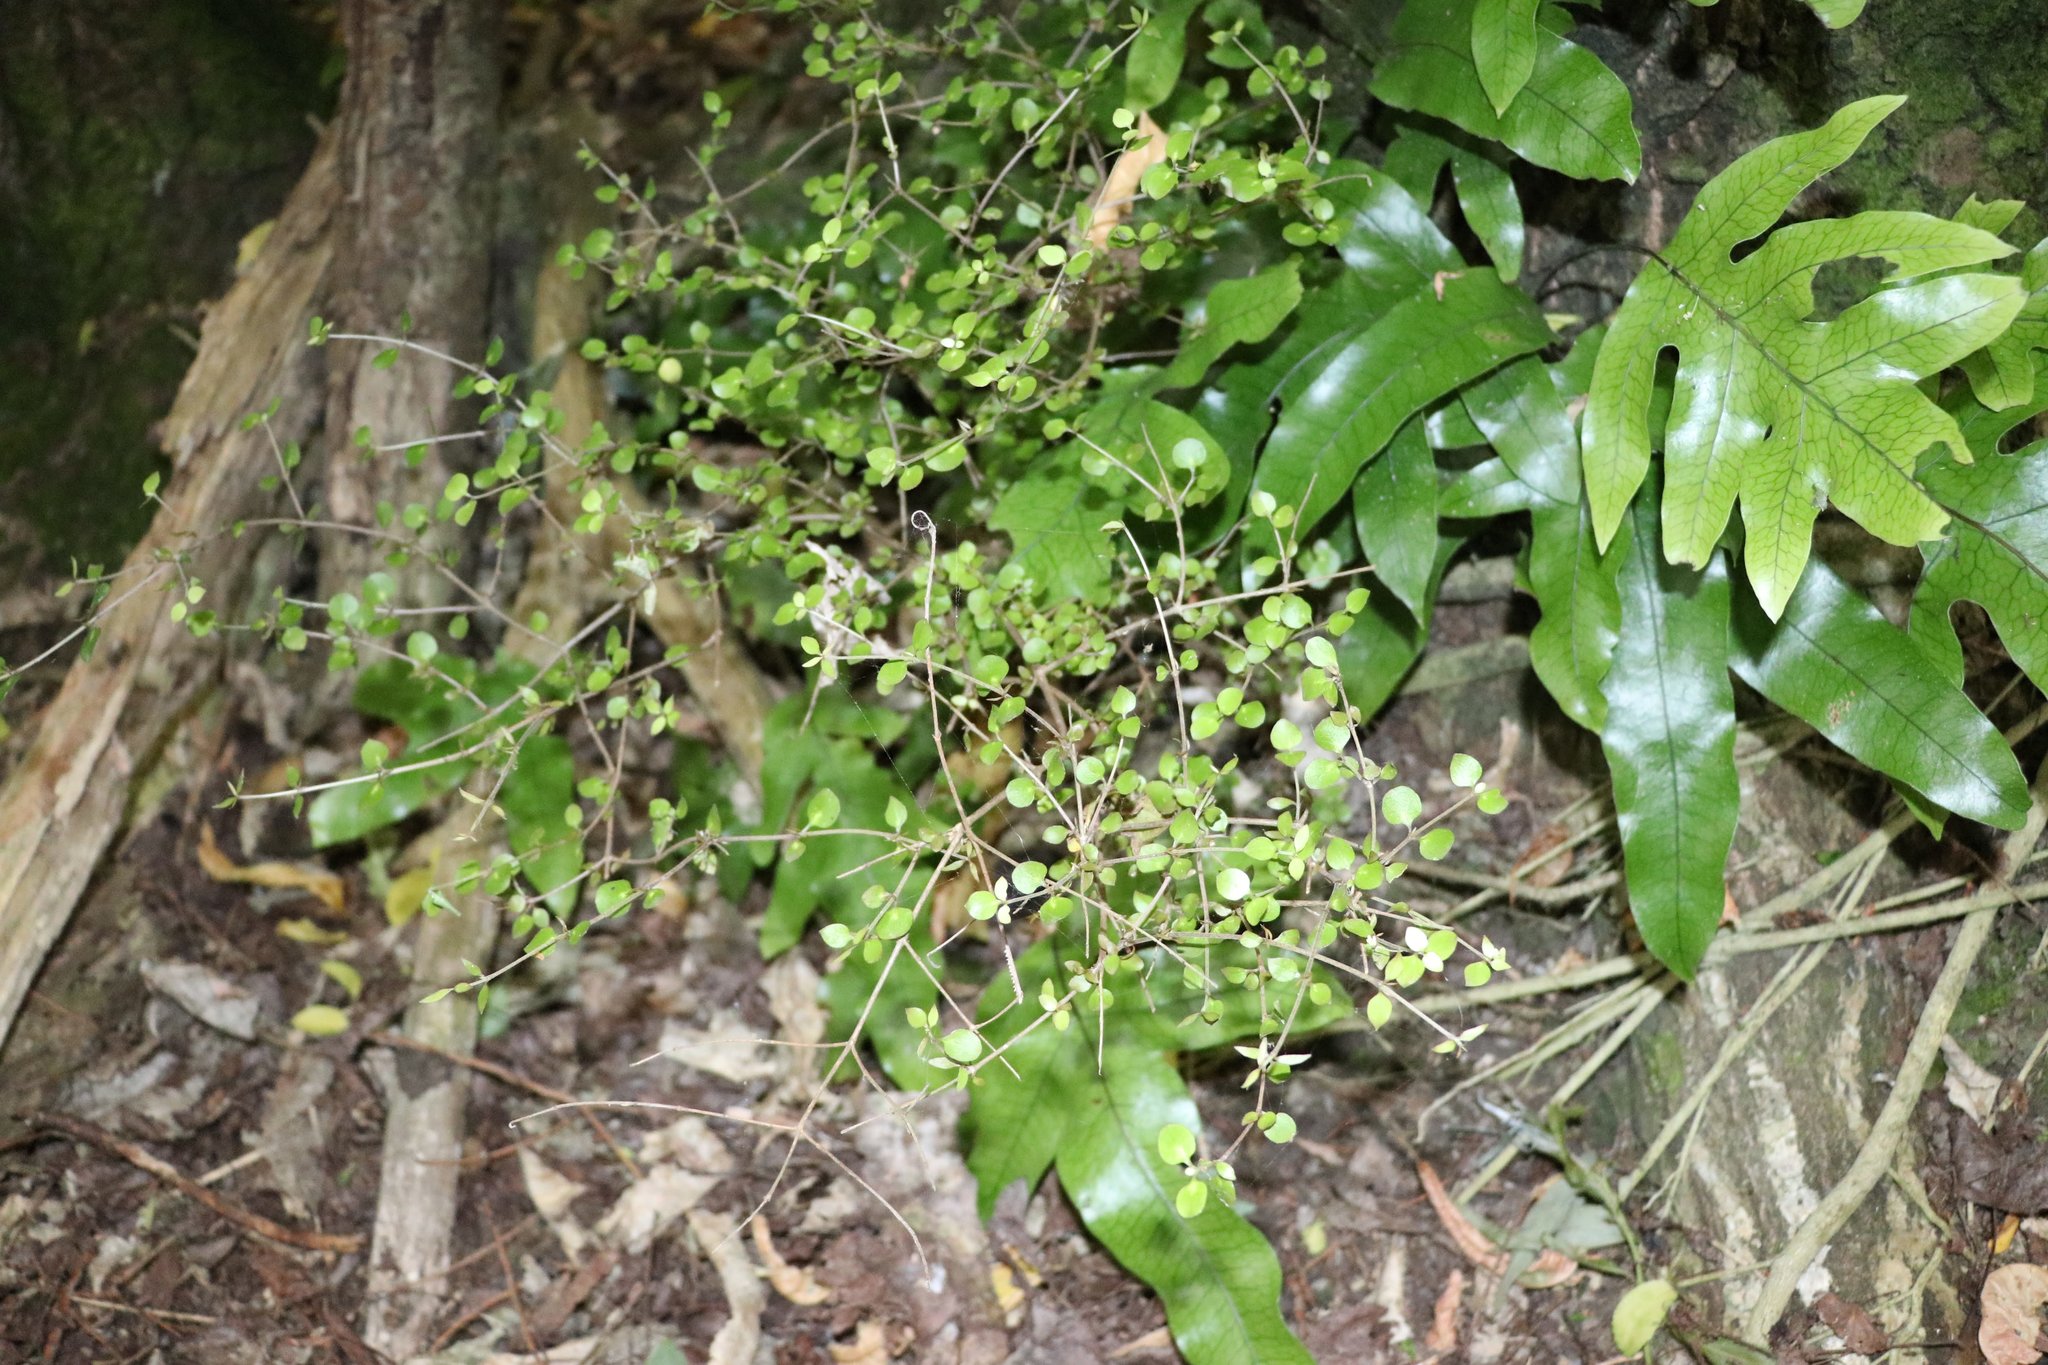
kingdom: Plantae
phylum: Tracheophyta
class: Magnoliopsida
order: Gentianales
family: Rubiaceae
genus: Coprosma
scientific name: Coprosma rhamnoides
